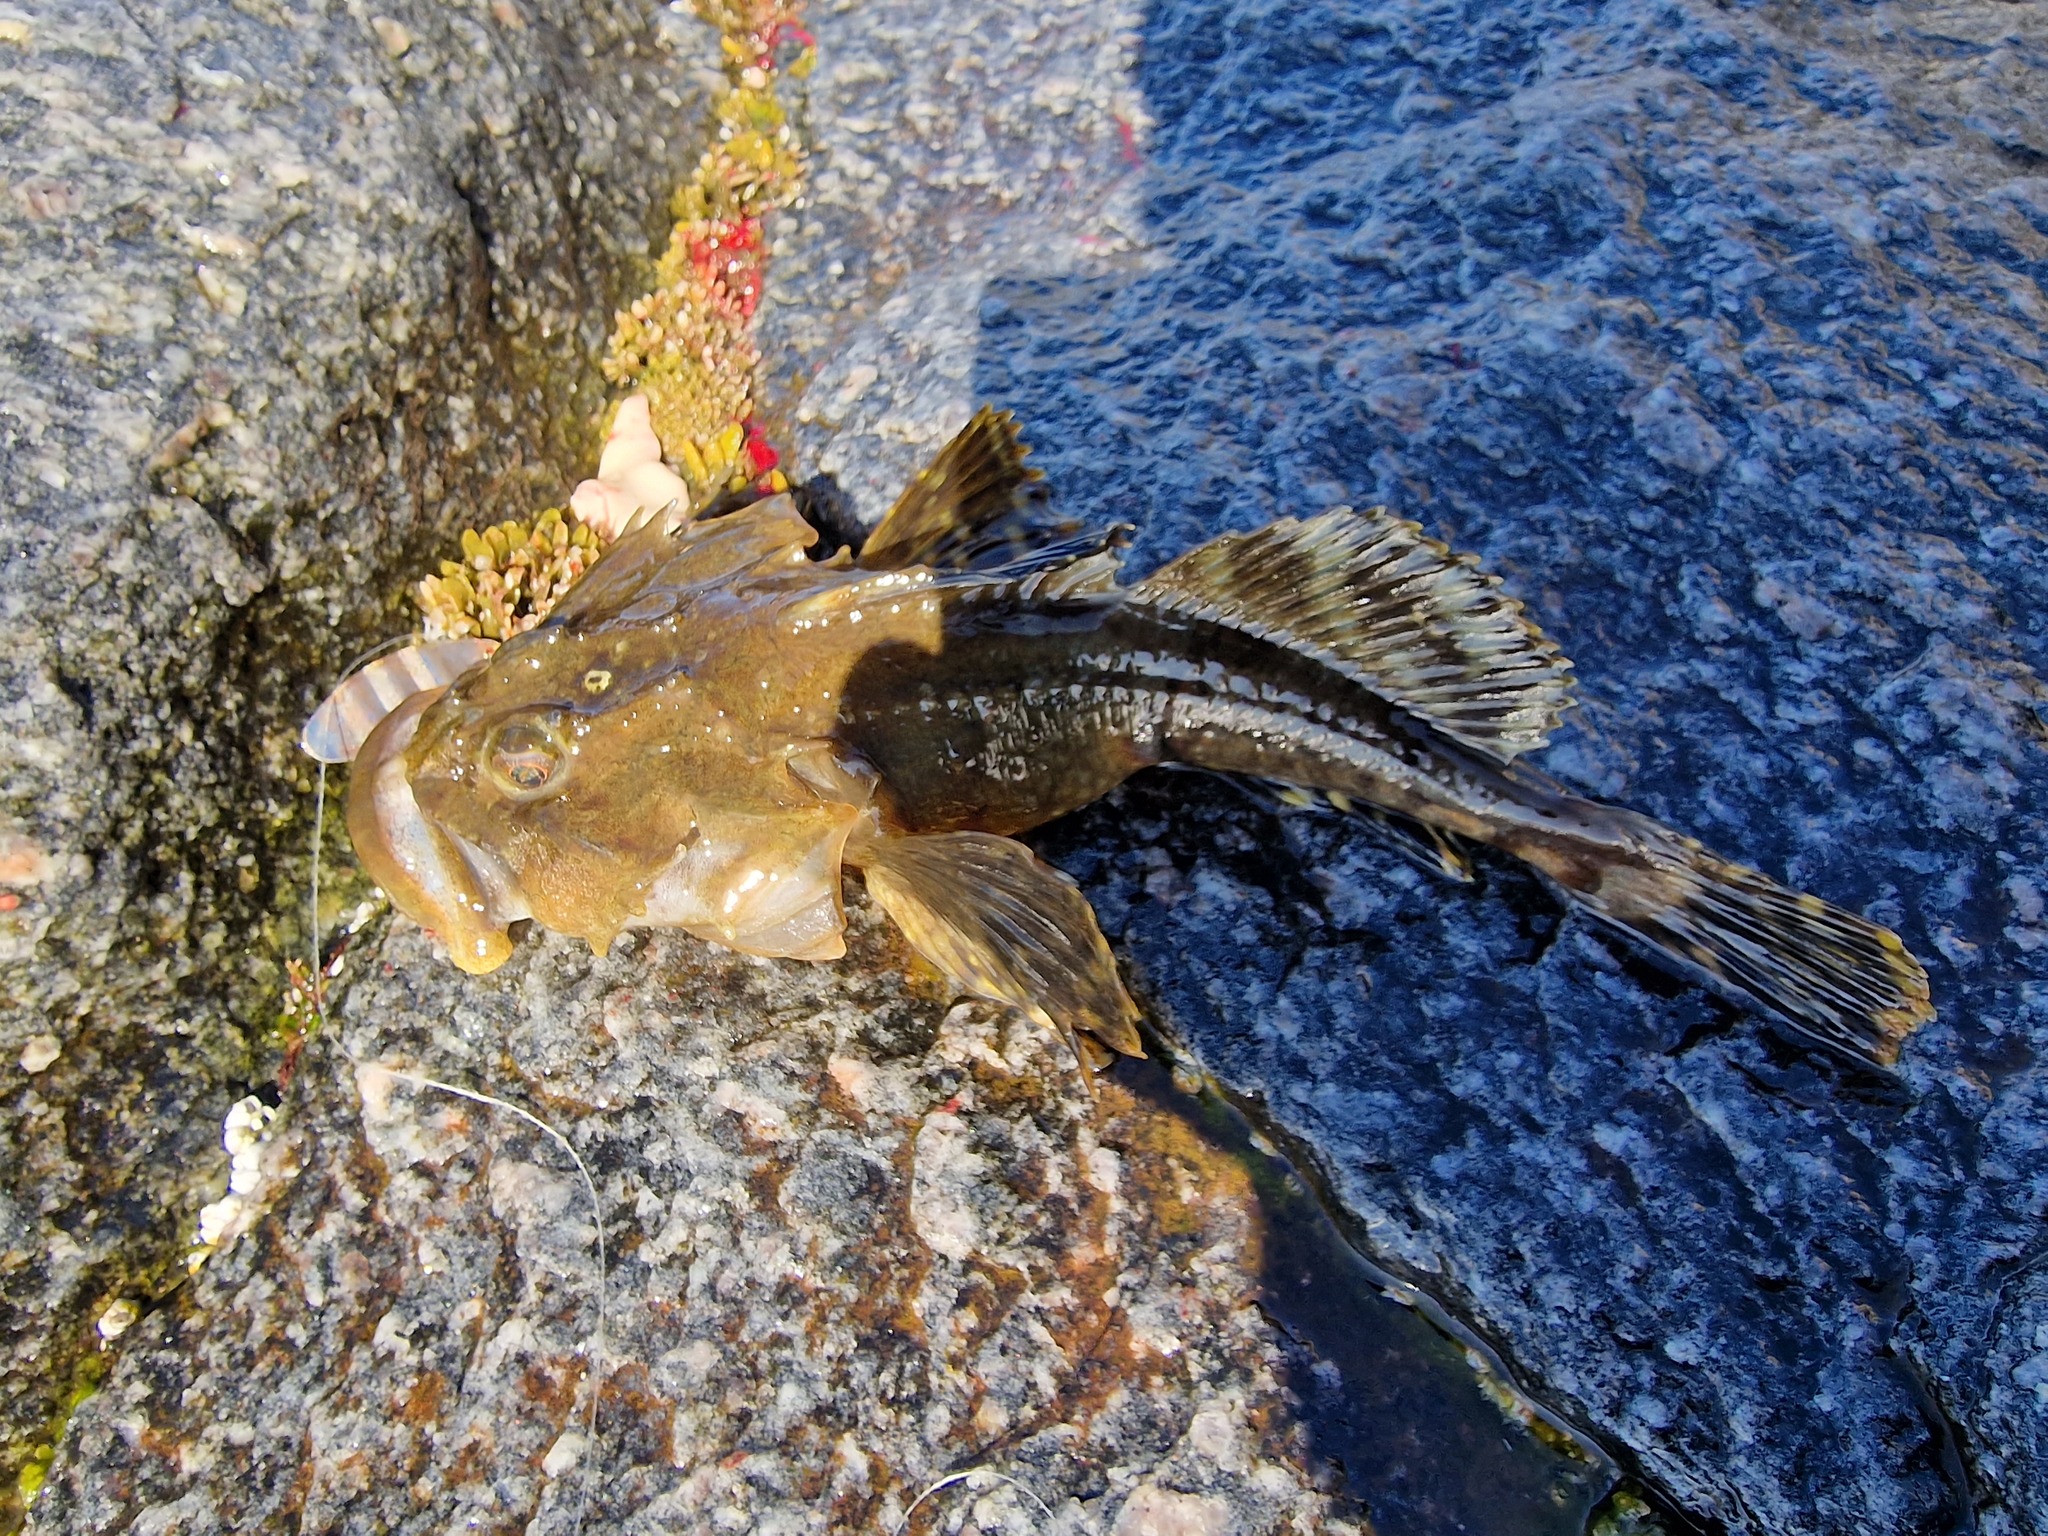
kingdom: Animalia
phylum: Chordata
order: Scorpaeniformes
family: Cottidae
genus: Myoxocephalus
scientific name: Myoxocephalus scorpius
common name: Shorthorn sculpin
